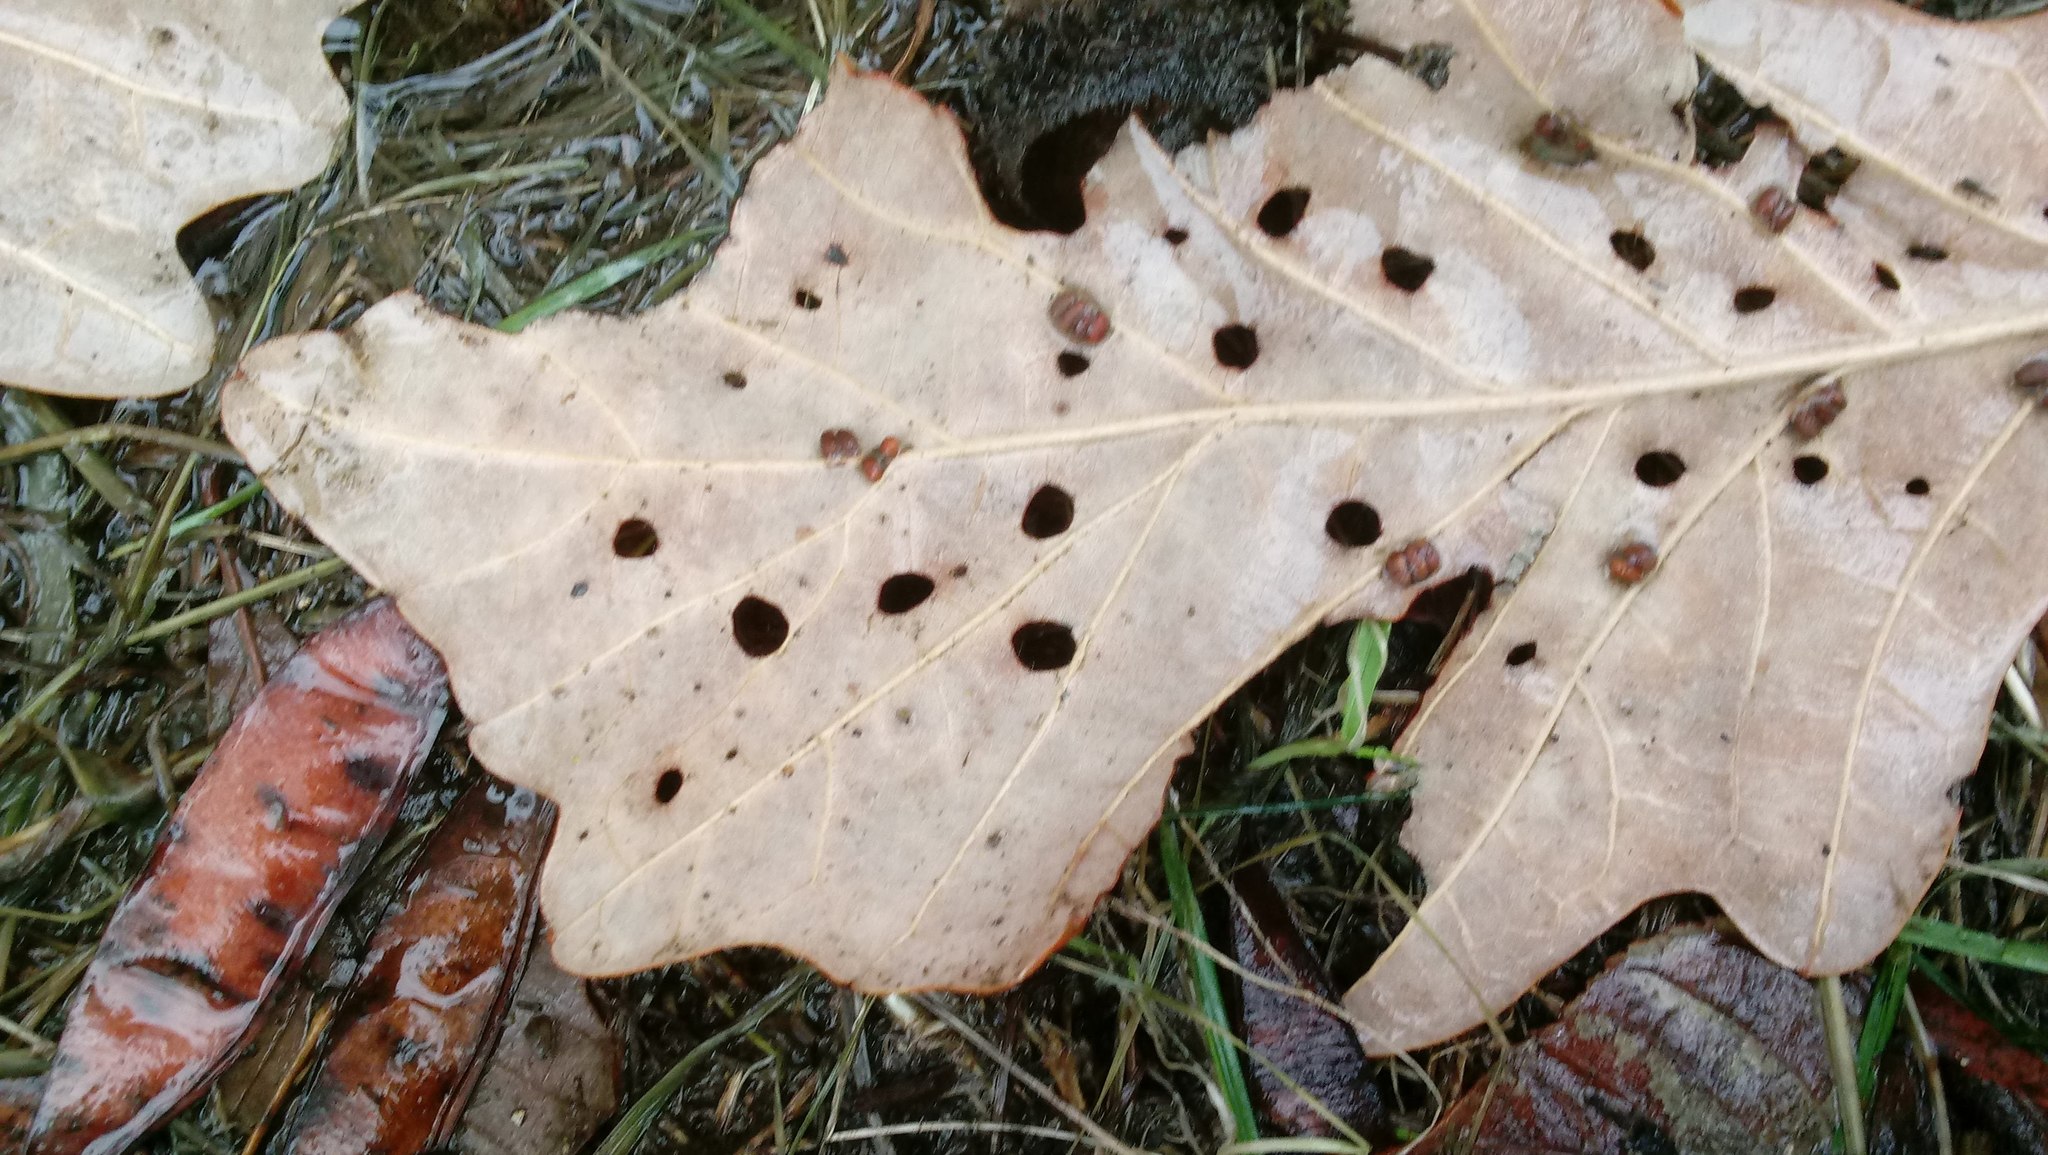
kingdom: Animalia
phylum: Arthropoda
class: Insecta
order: Hymenoptera
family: Cynipidae
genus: Andricus
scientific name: Andricus Druon ignotum
